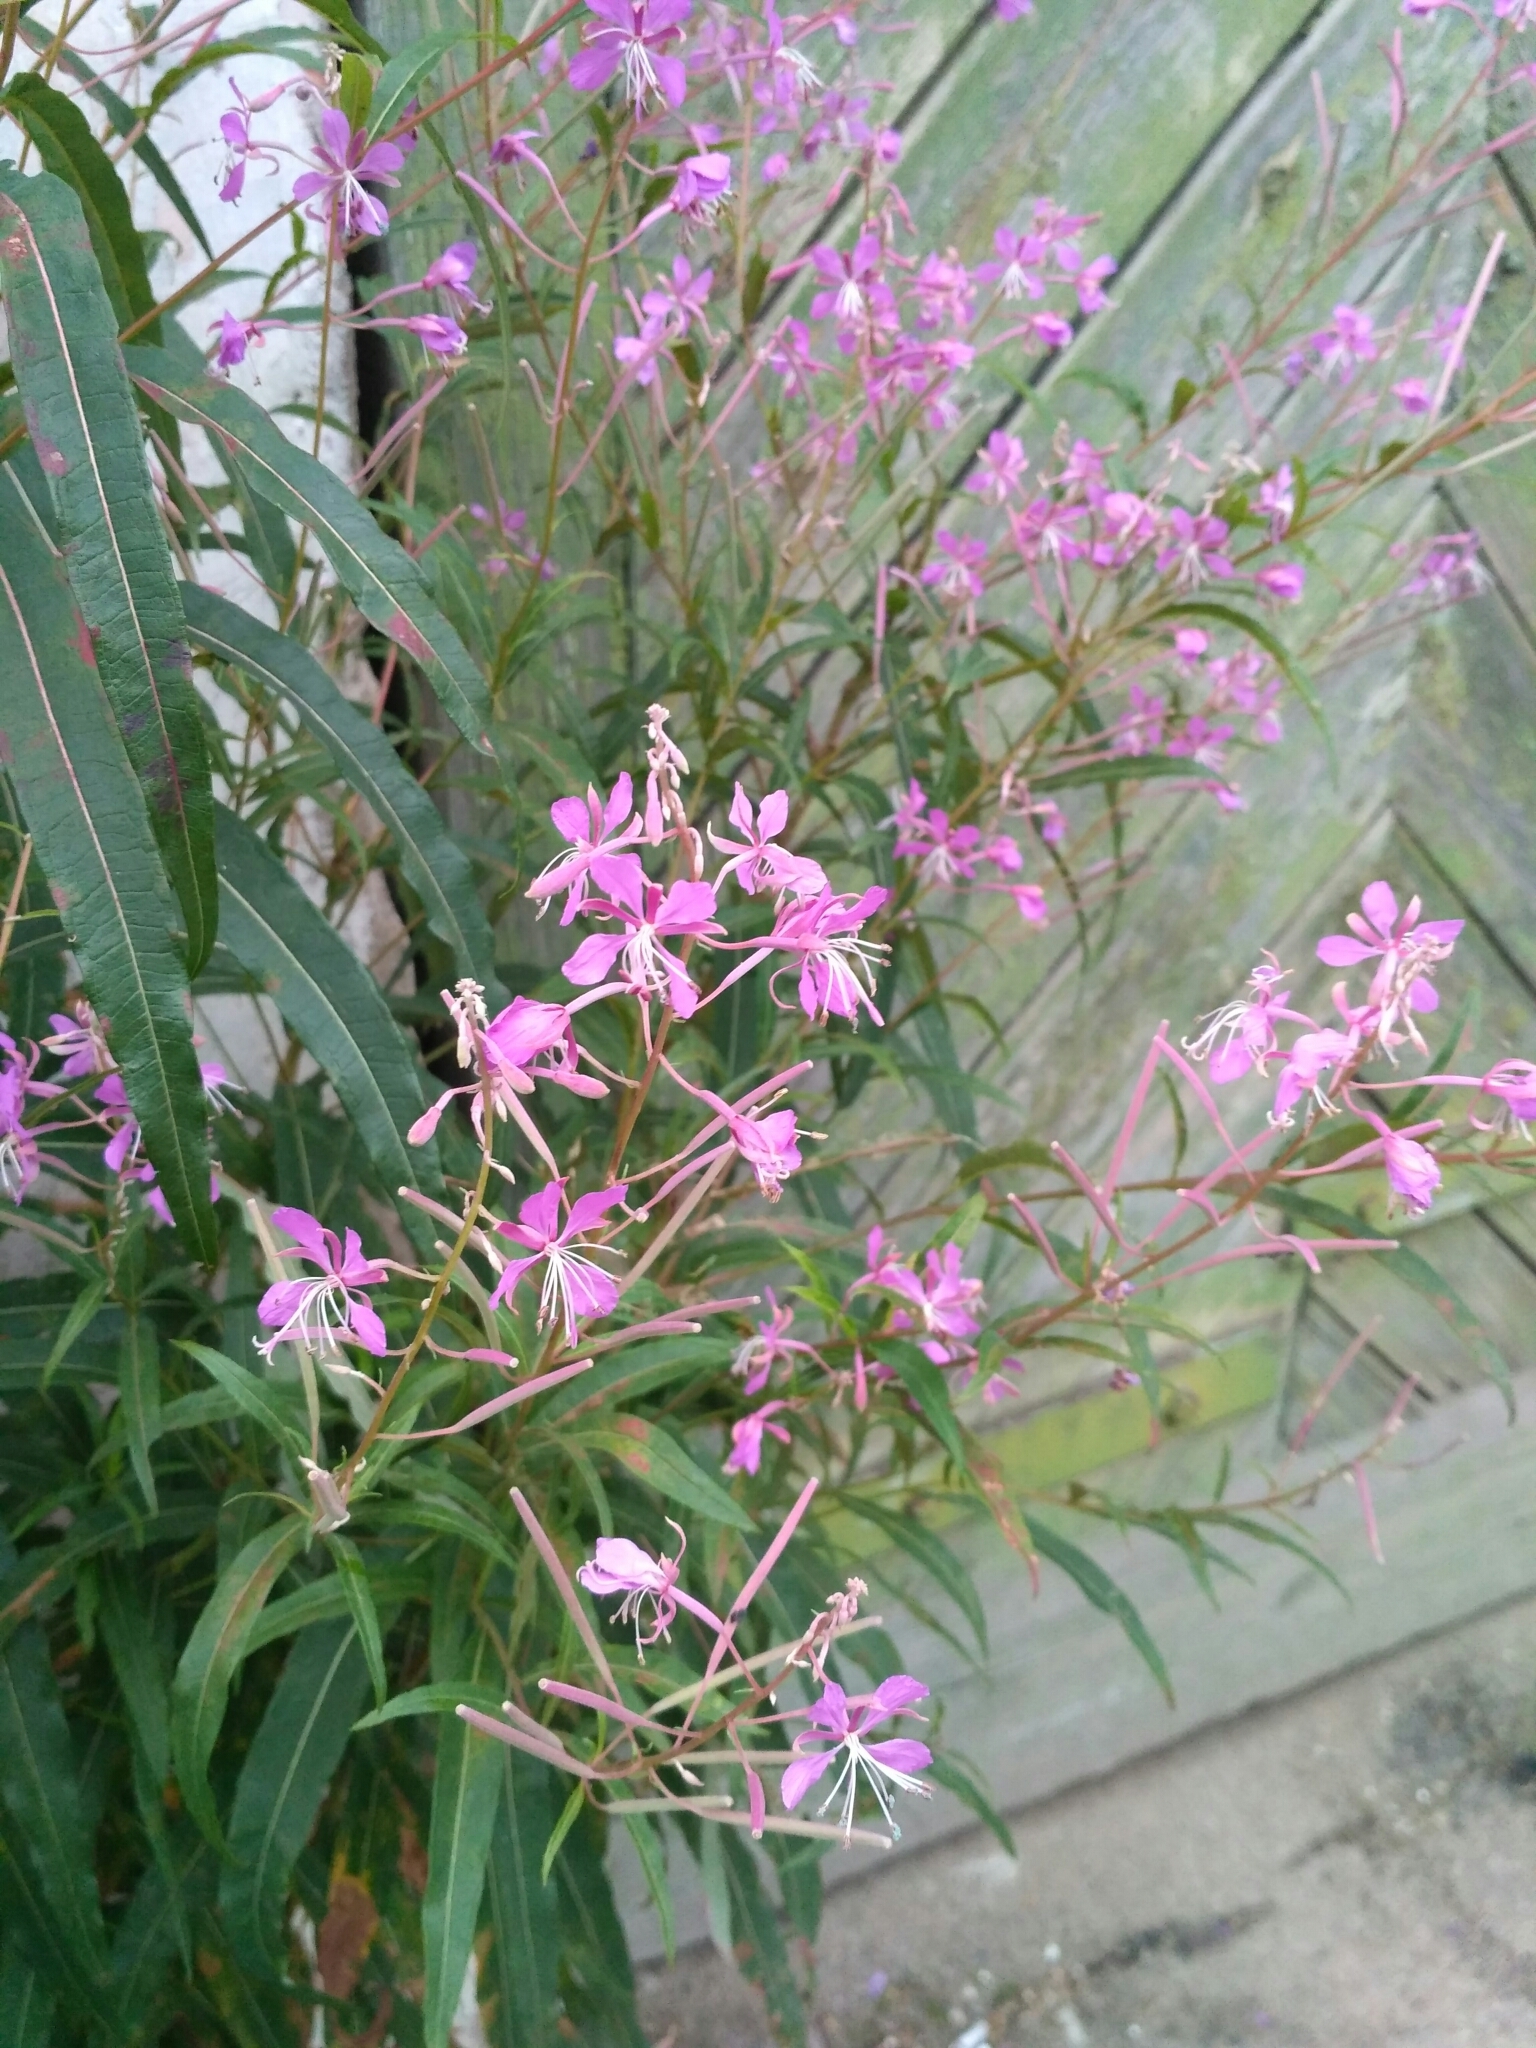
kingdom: Plantae
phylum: Tracheophyta
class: Magnoliopsida
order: Myrtales
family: Onagraceae
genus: Chamaenerion
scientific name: Chamaenerion angustifolium
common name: Fireweed
